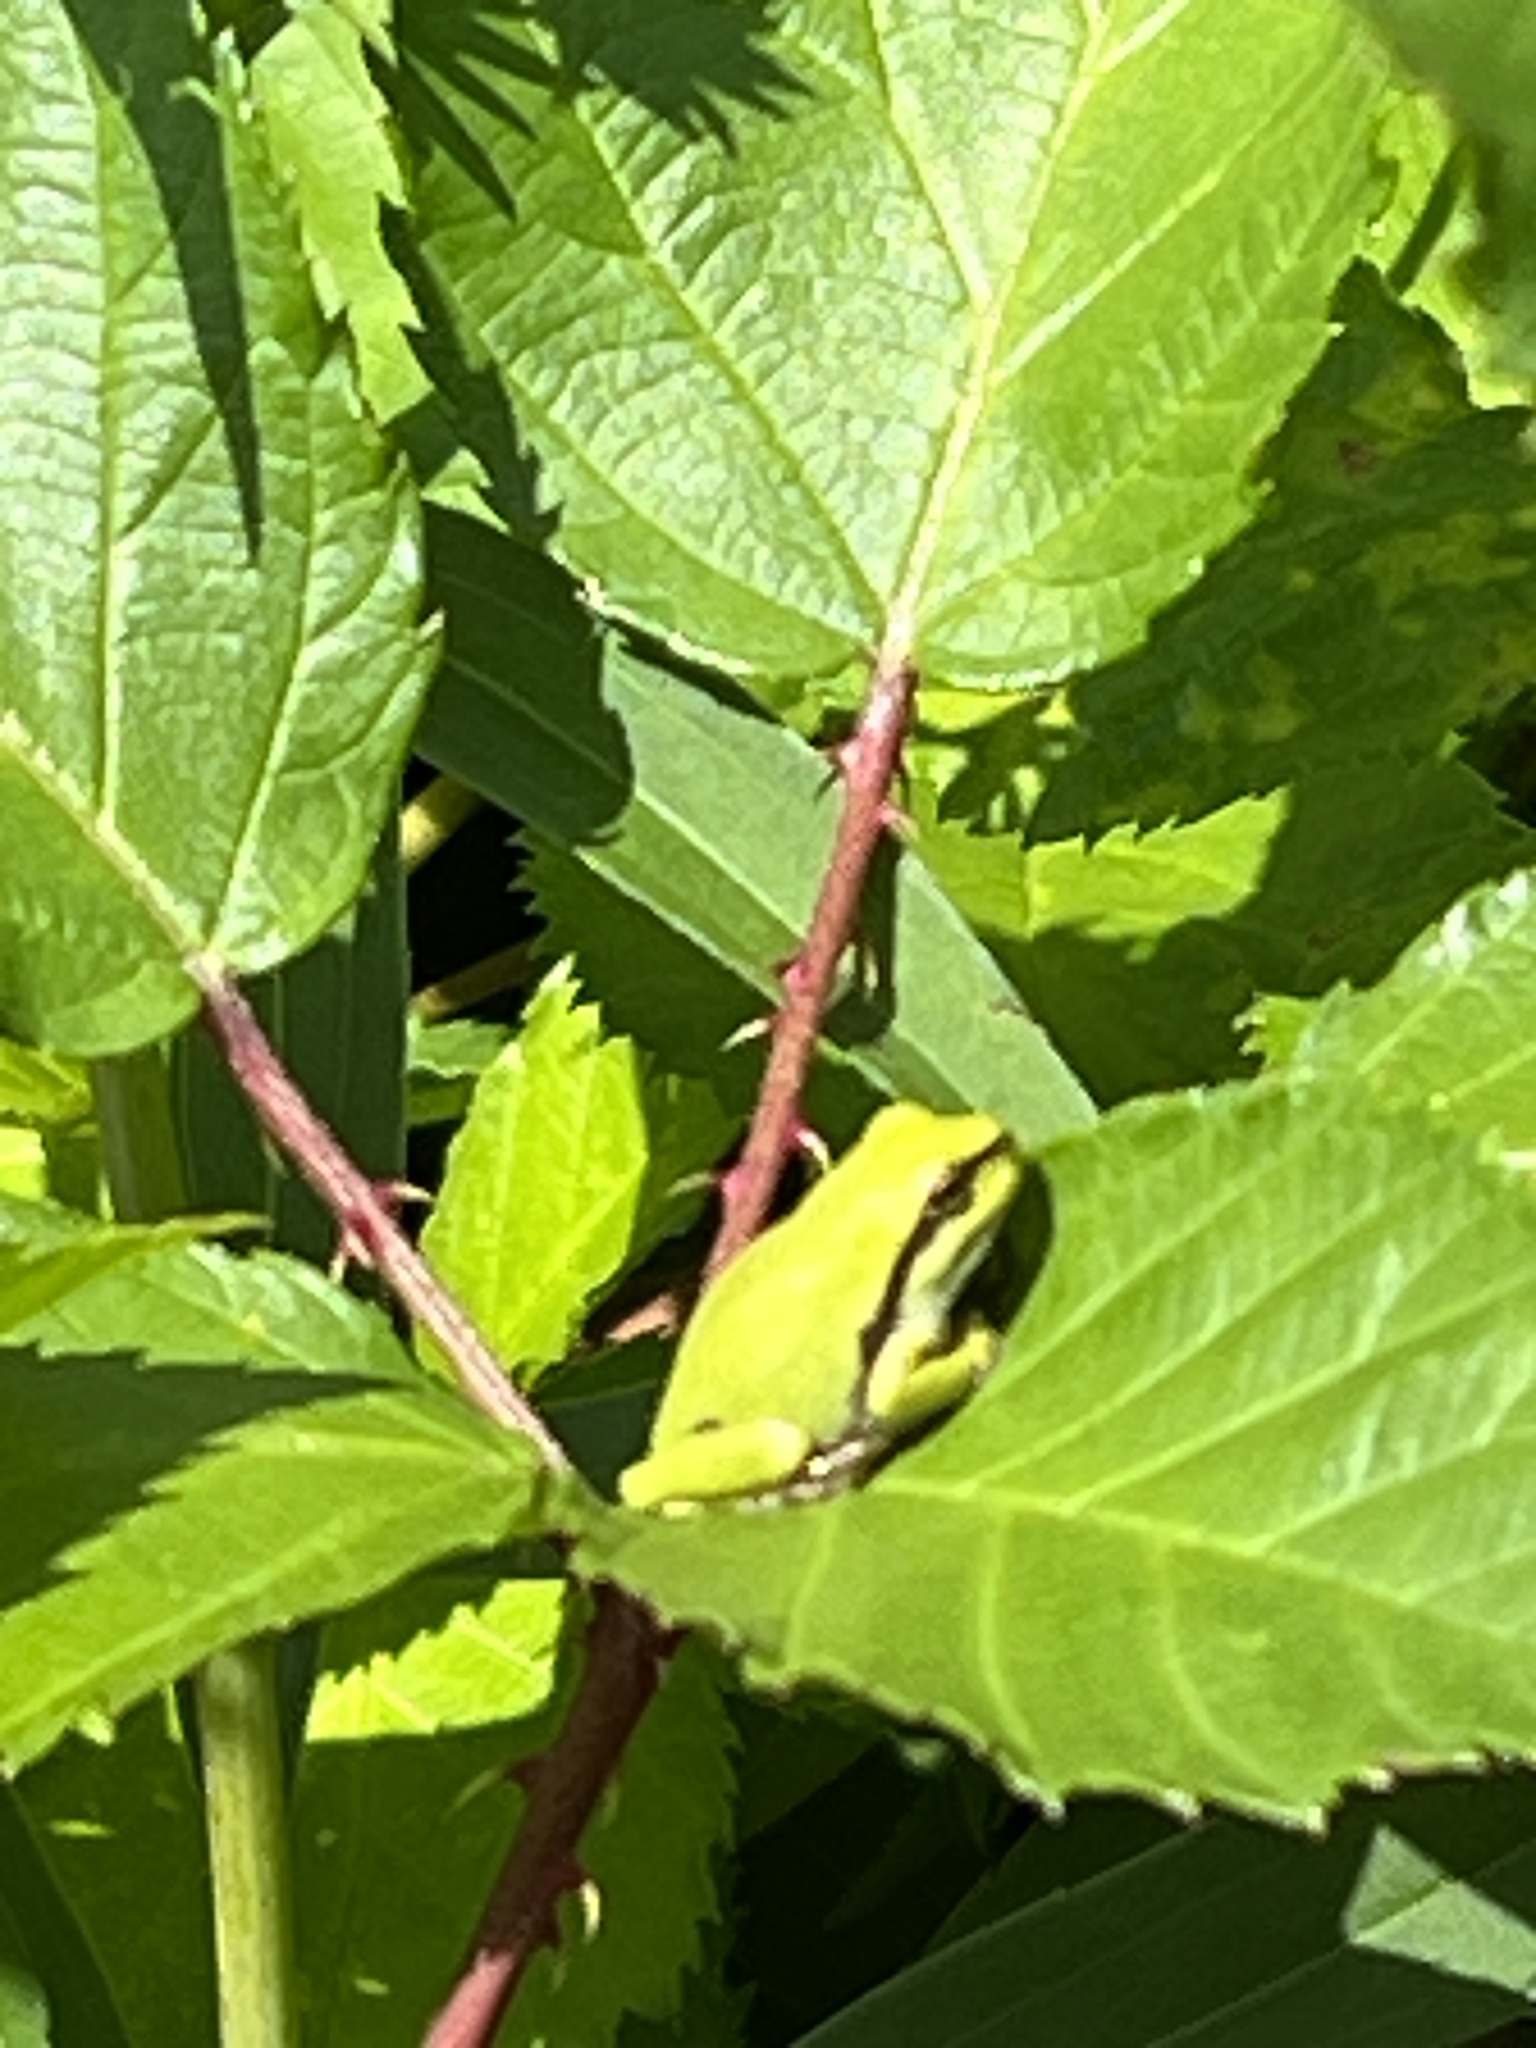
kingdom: Animalia
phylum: Chordata
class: Amphibia
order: Anura
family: Hylidae
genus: Hyla
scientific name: Hyla arborea
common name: Common tree frog
